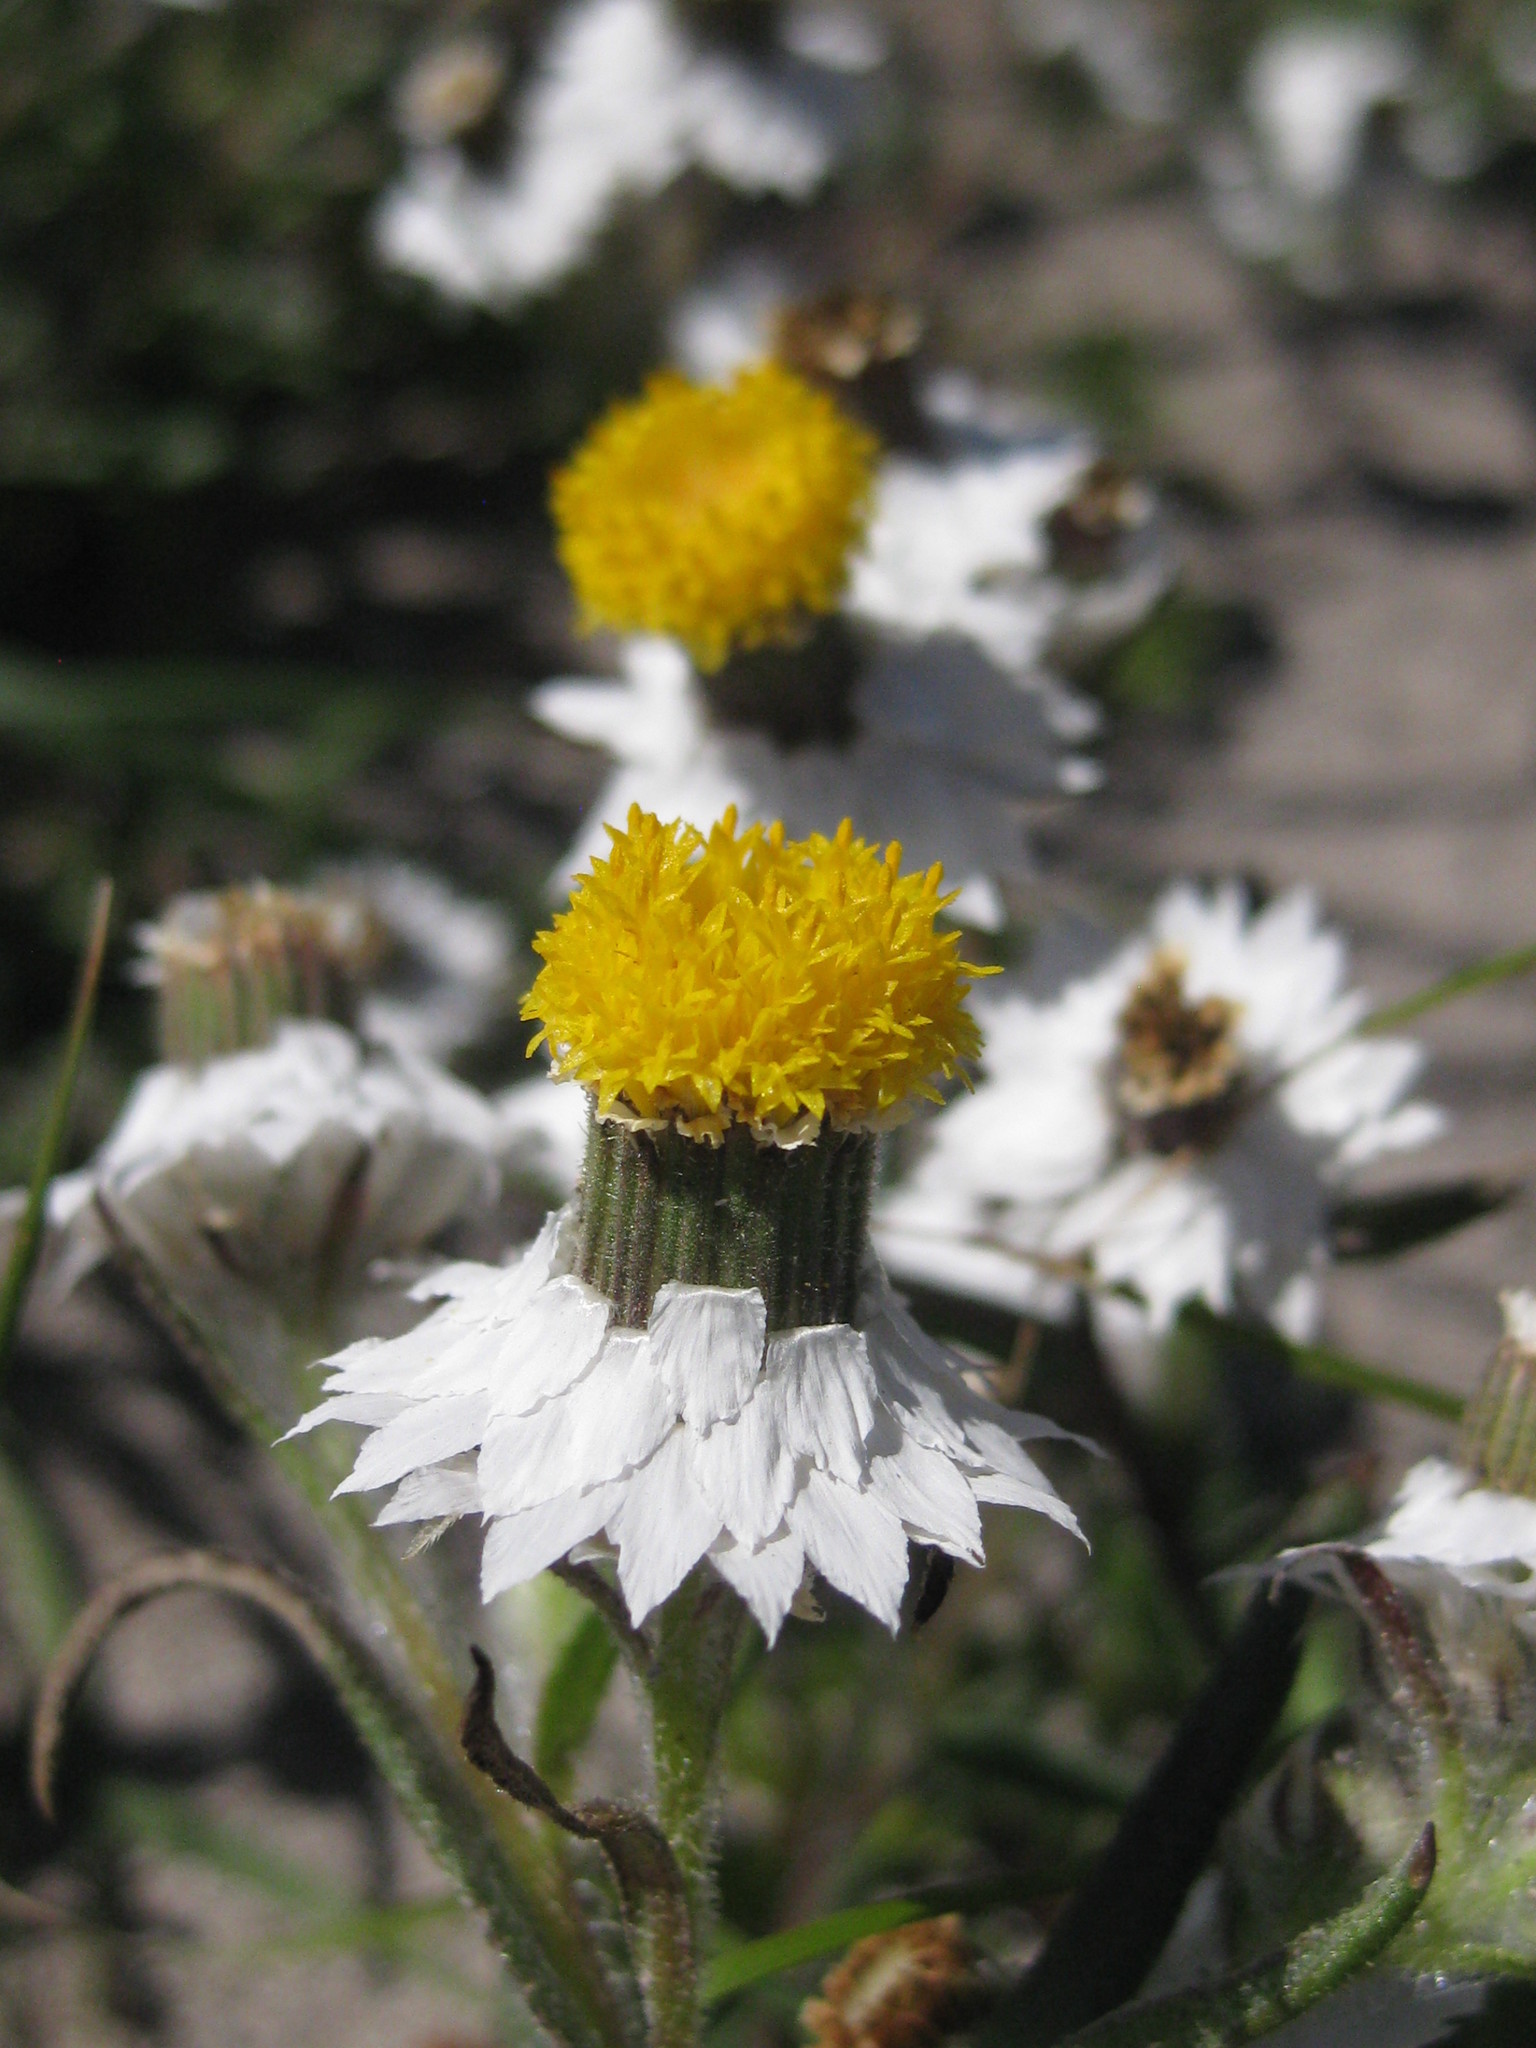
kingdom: Plantae
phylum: Tracheophyta
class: Magnoliopsida
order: Asterales
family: Asteraceae
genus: Waitzia
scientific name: Waitzia suaveolens
